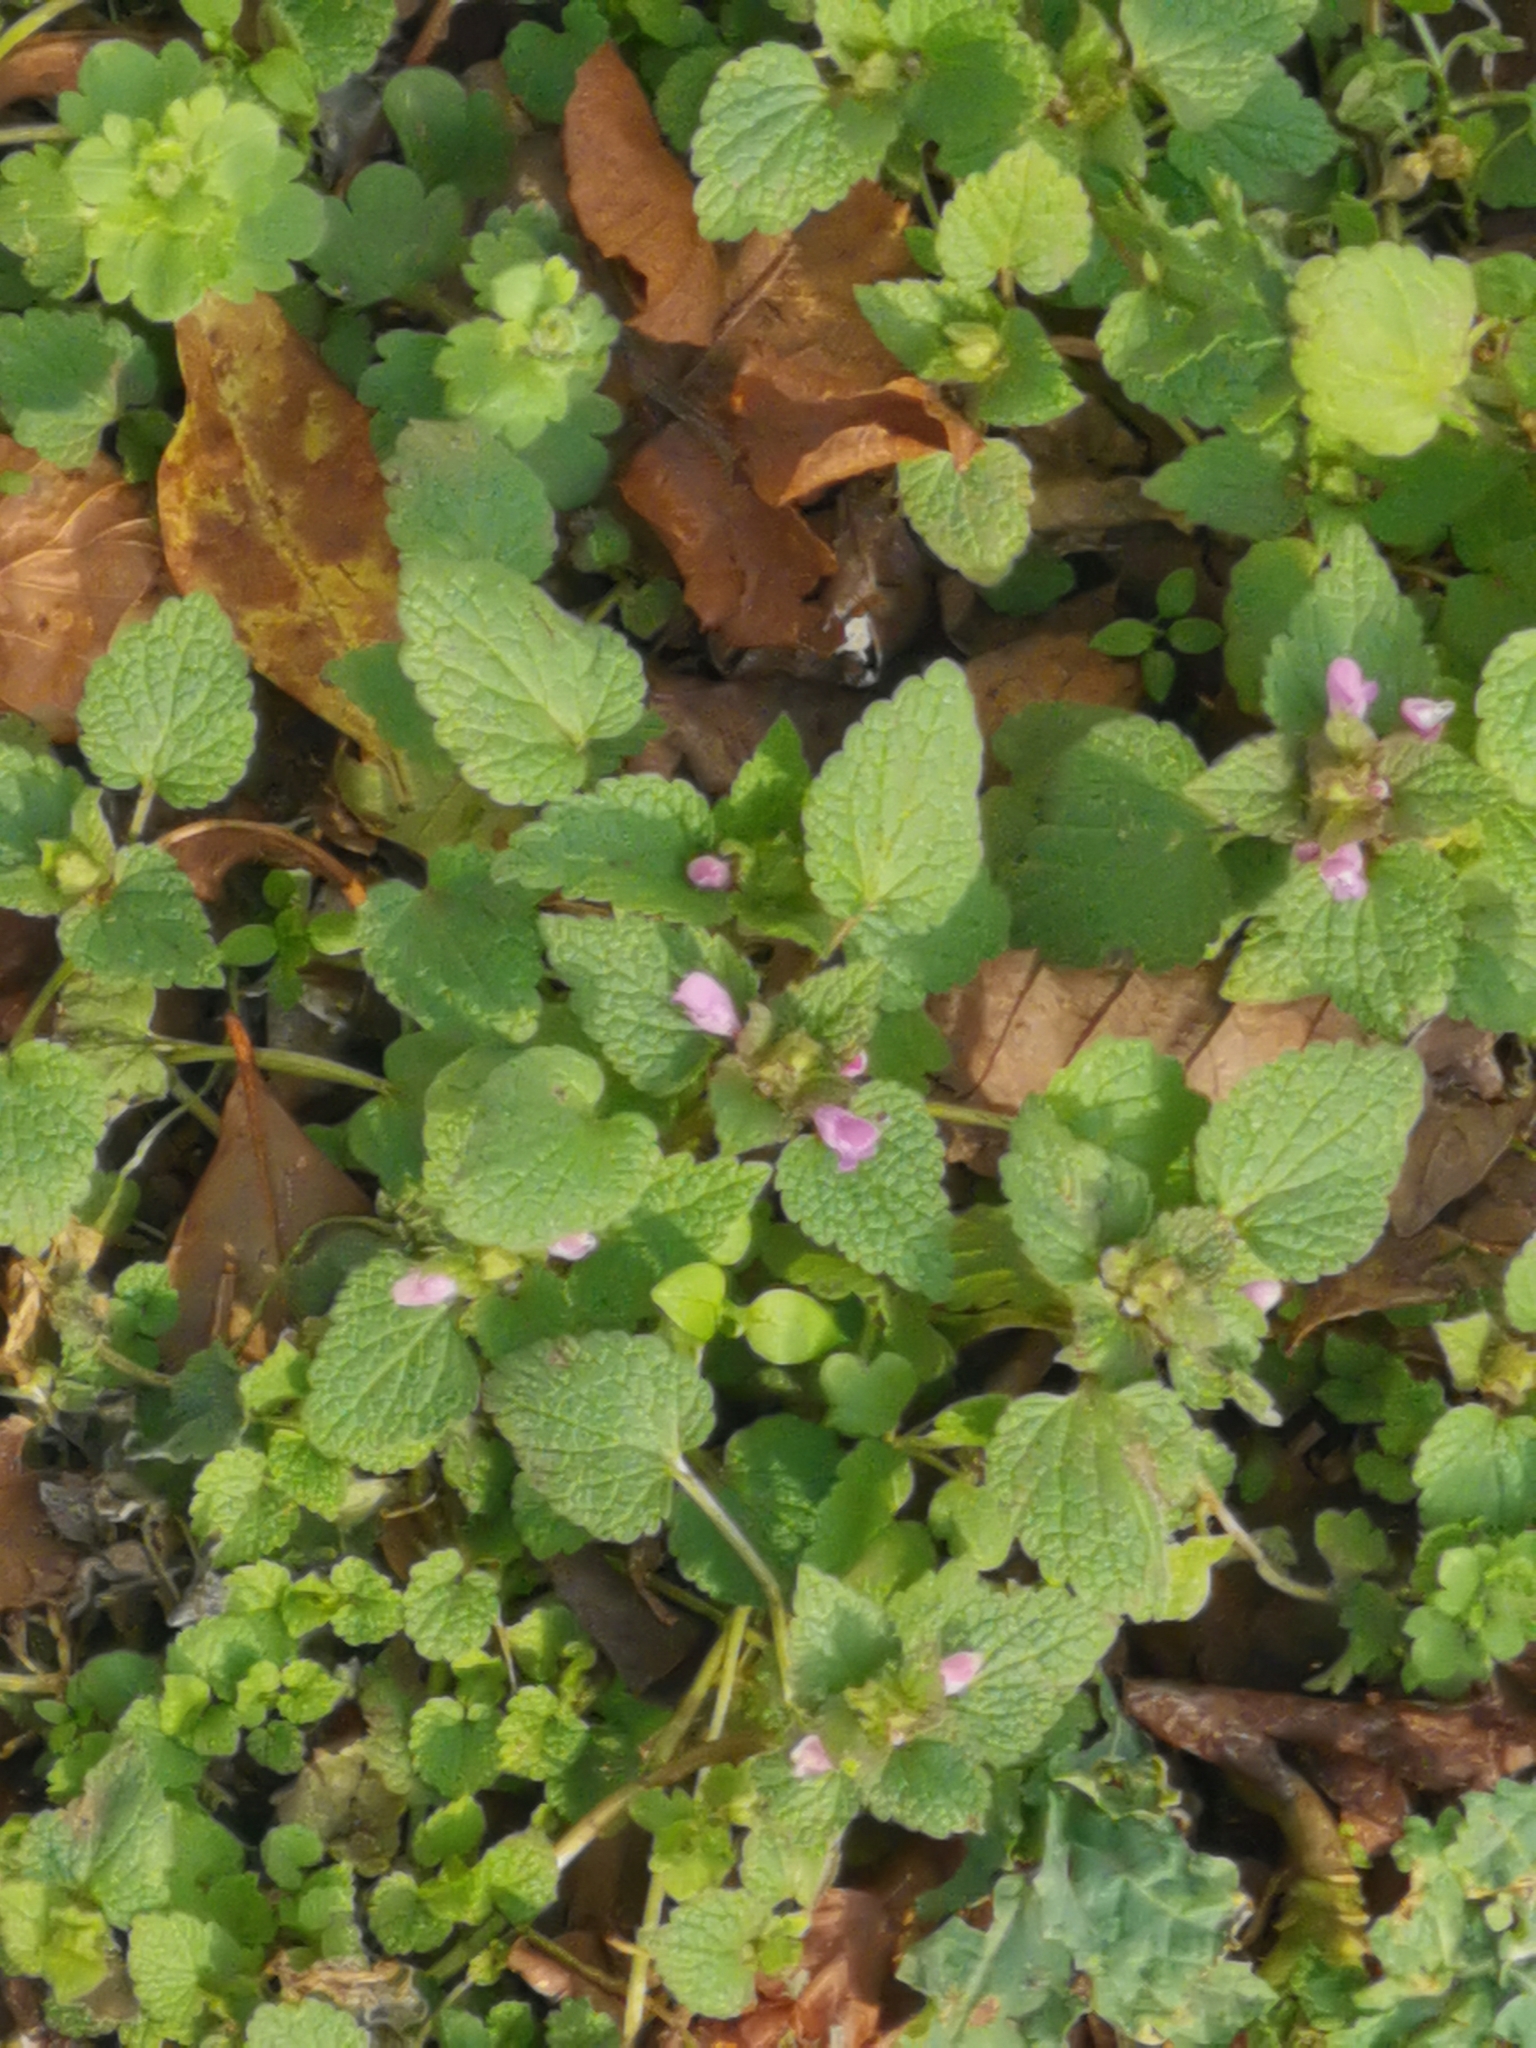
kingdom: Plantae
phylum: Tracheophyta
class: Magnoliopsida
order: Lamiales
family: Lamiaceae
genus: Lamium
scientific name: Lamium purpureum
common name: Red dead-nettle
